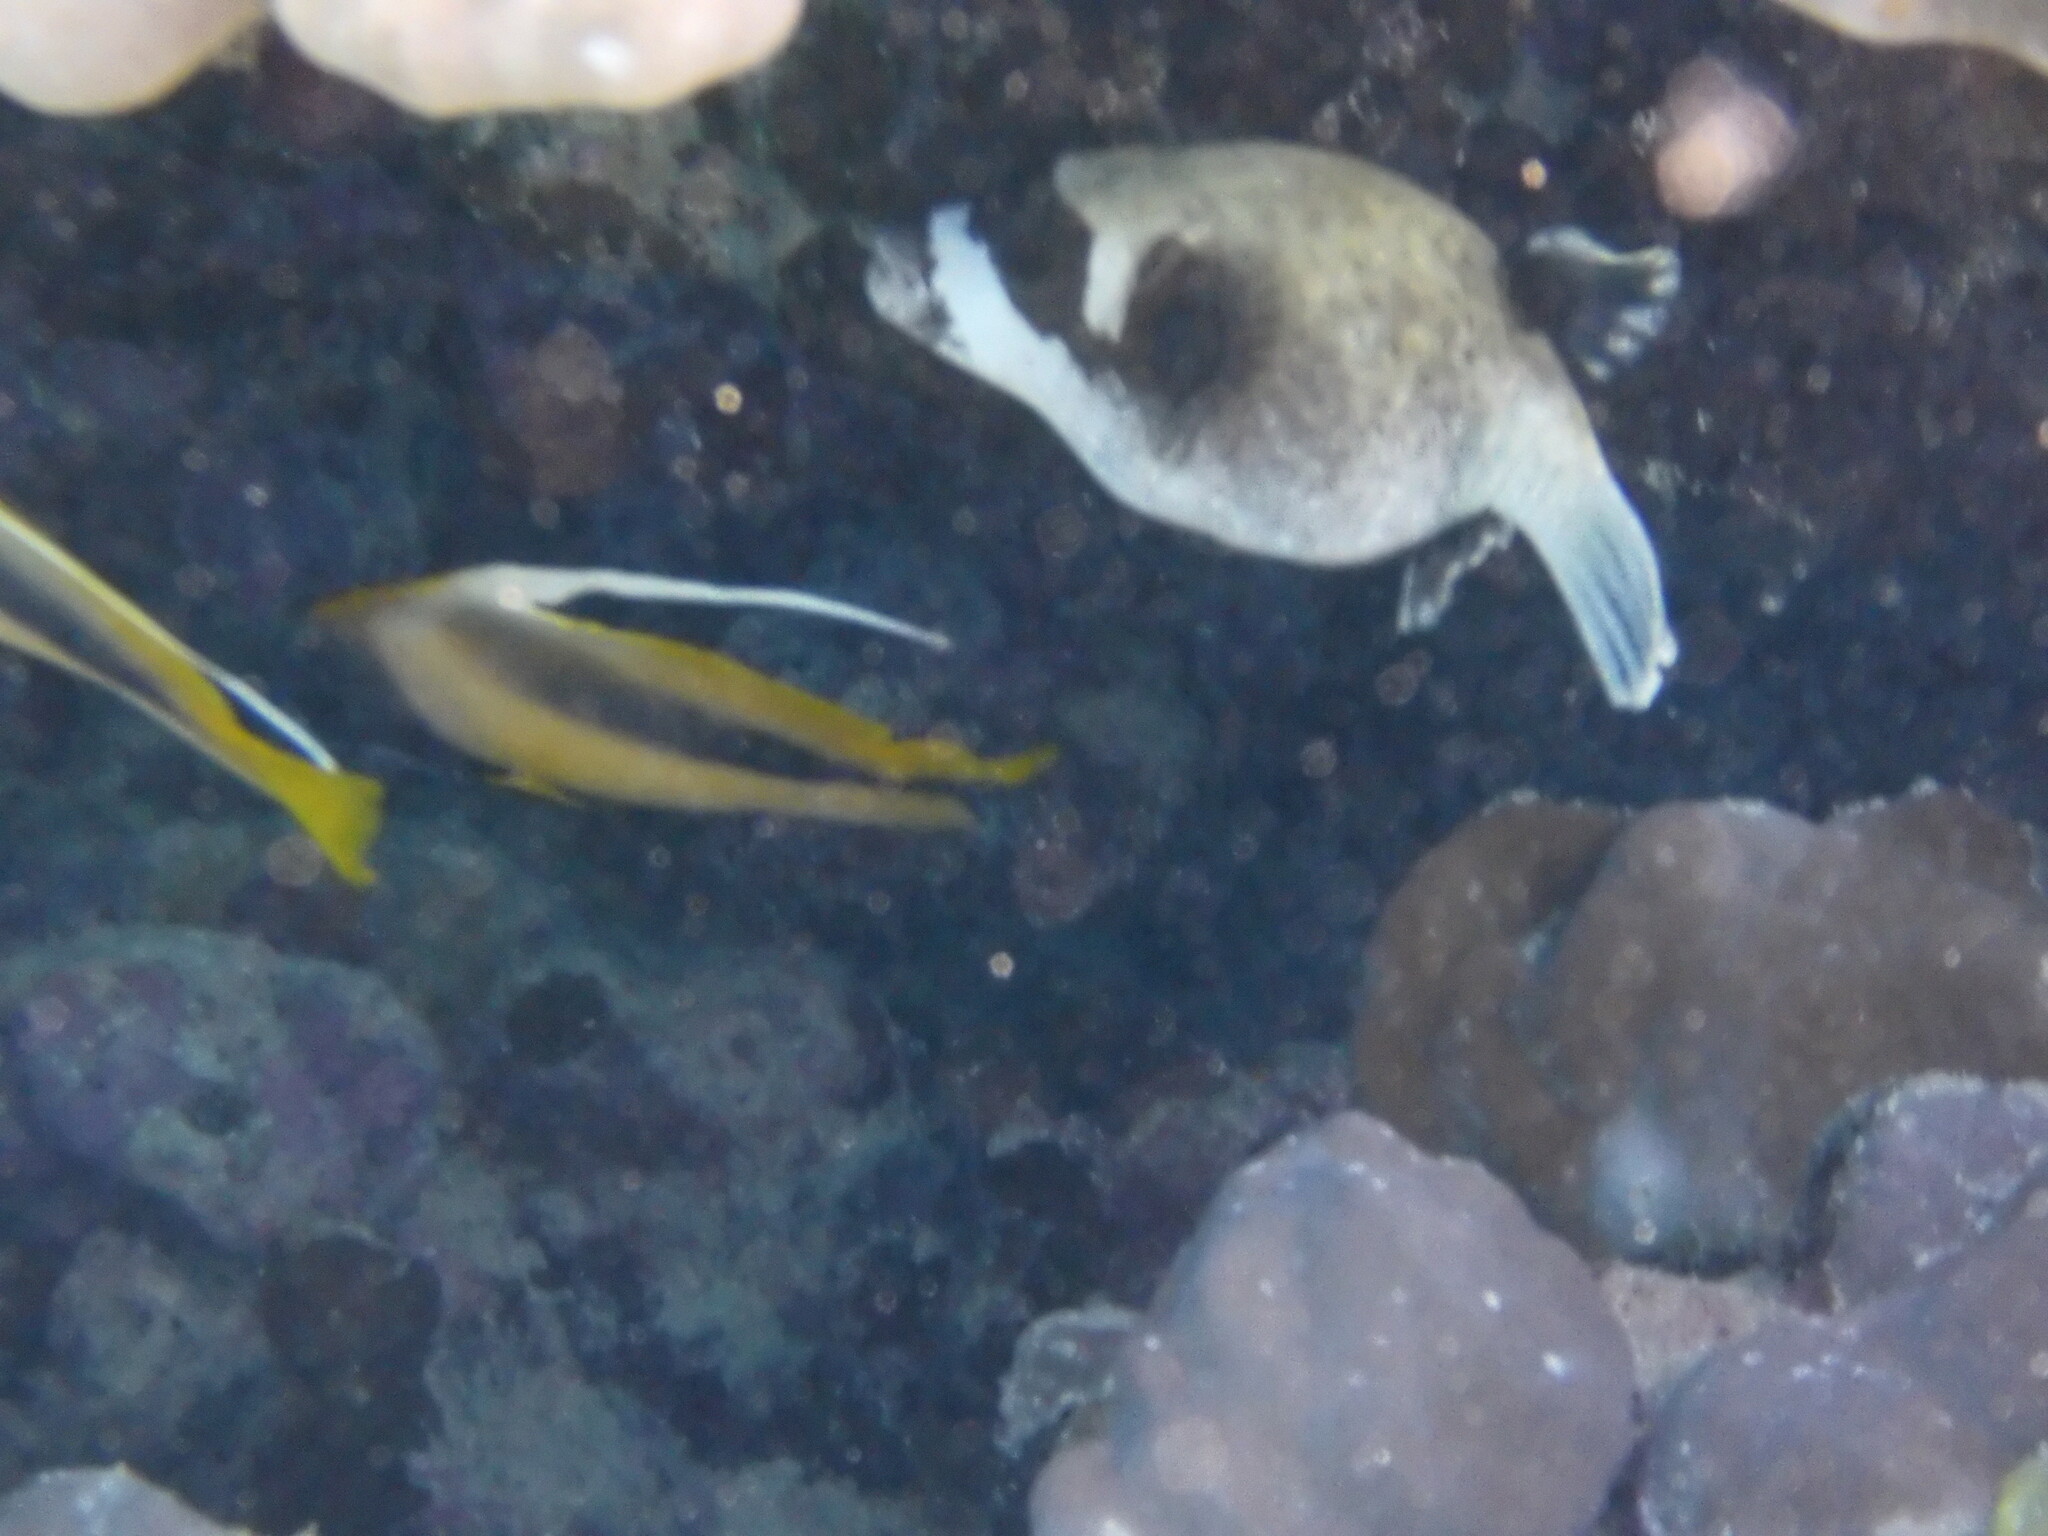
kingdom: Animalia
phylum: Chordata
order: Perciformes
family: Chaetodontidae
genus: Heniochus
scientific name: Heniochus intermedius
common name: Red sea bannerfish
